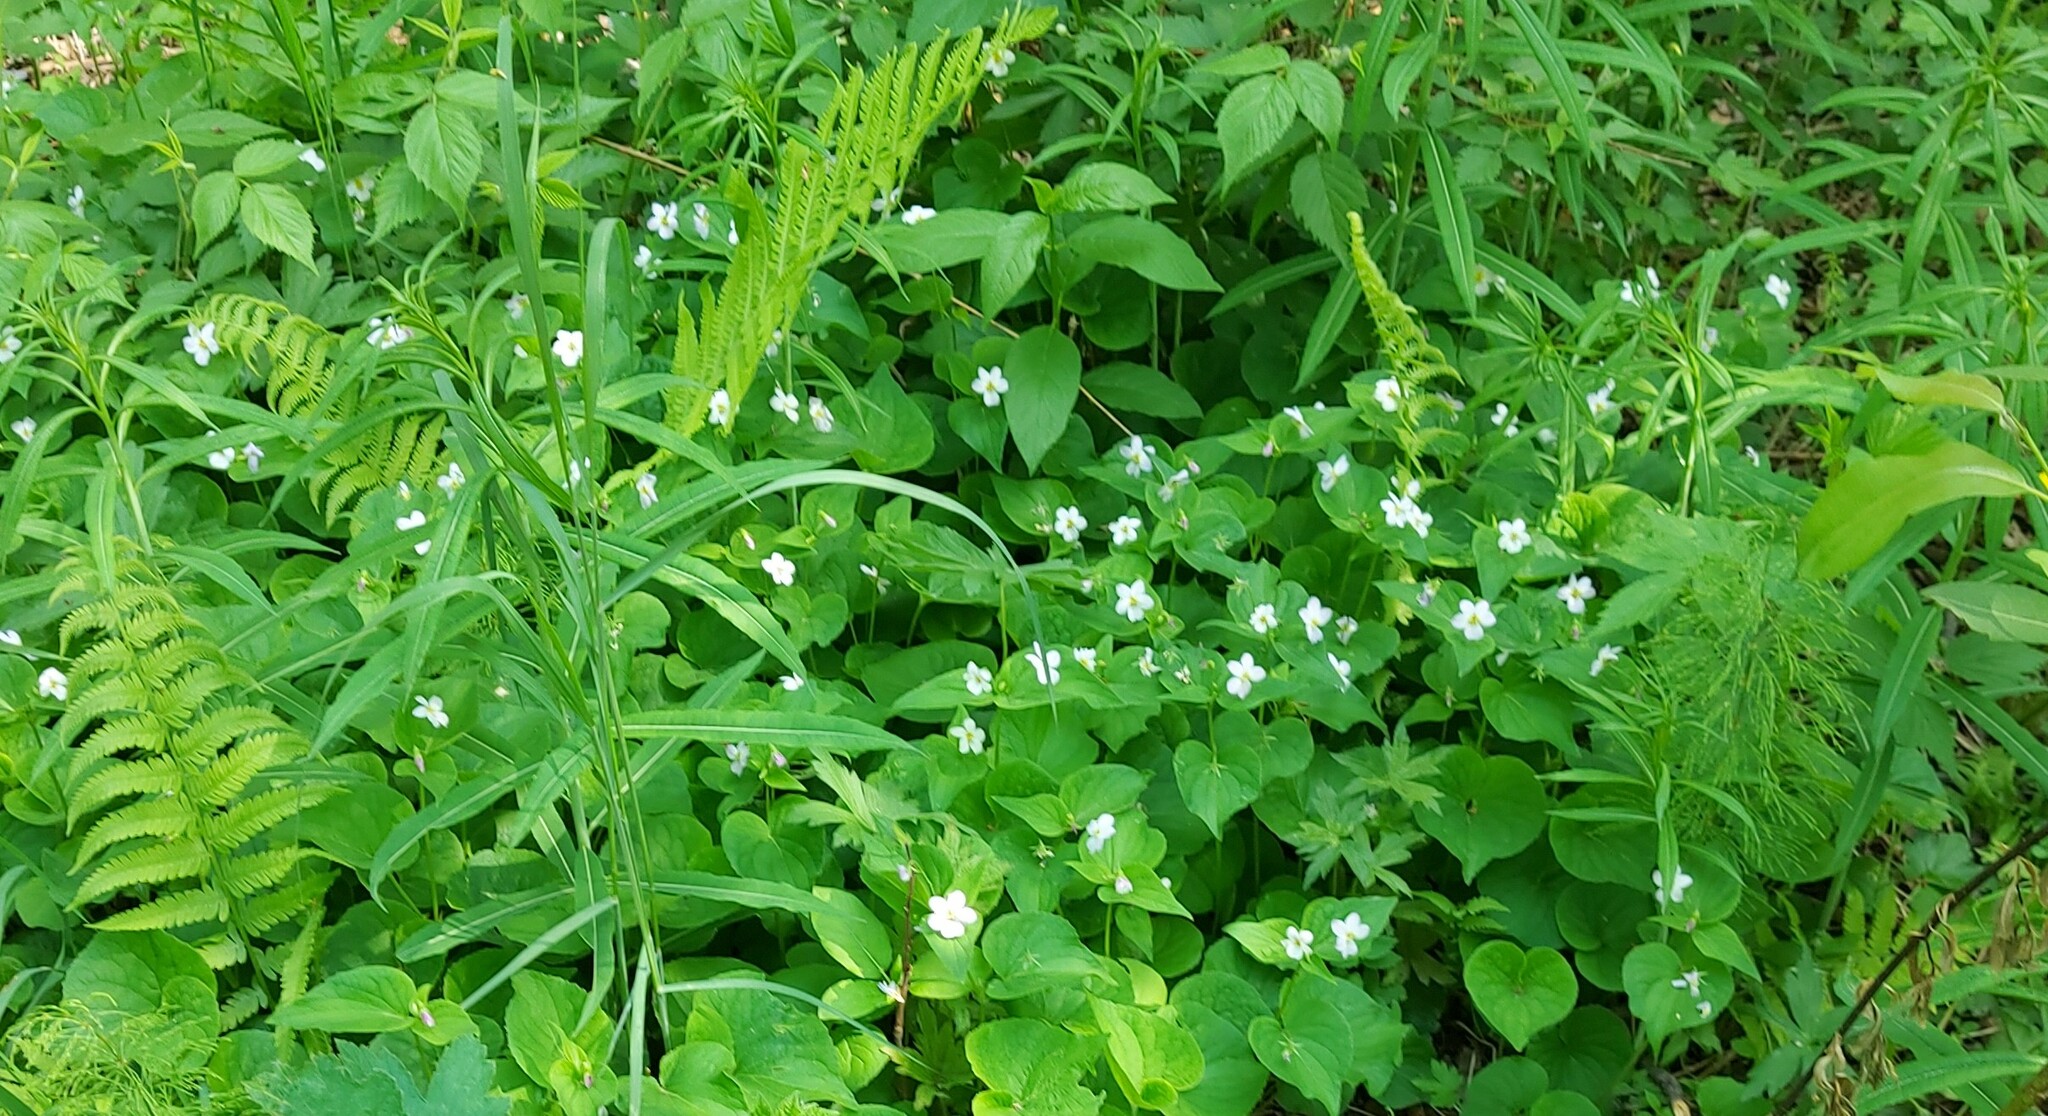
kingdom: Plantae
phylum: Tracheophyta
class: Magnoliopsida
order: Malpighiales
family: Violaceae
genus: Viola
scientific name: Viola rugulosa
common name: Creeping-root violet
